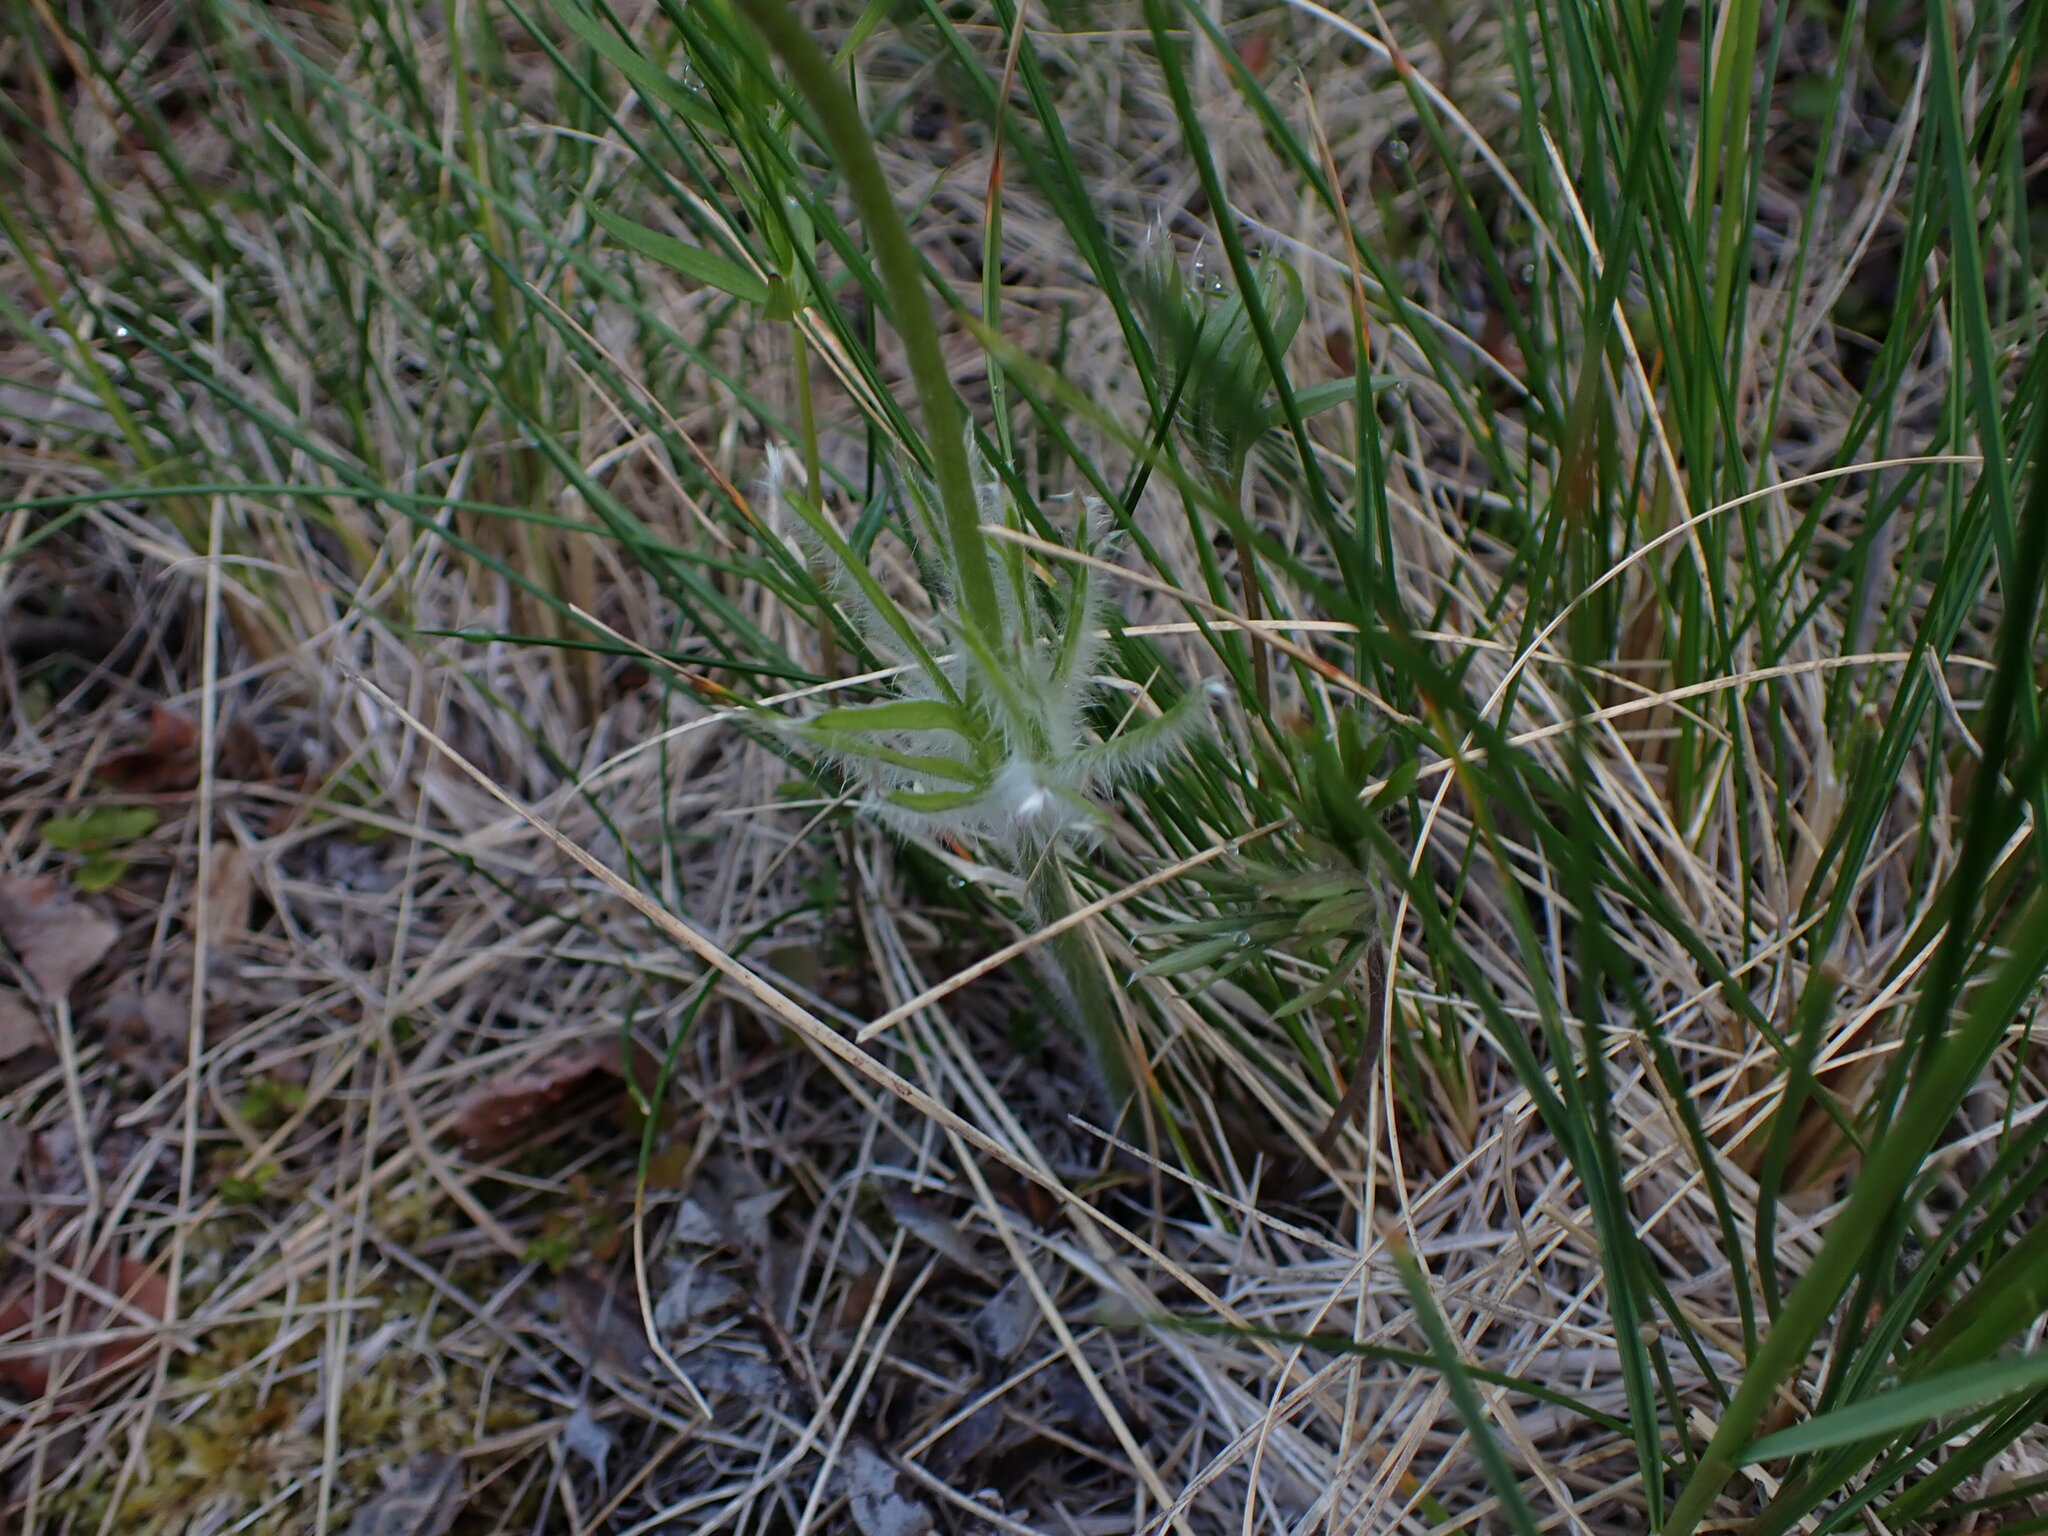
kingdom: Plantae
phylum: Tracheophyta
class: Magnoliopsida
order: Ranunculales
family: Ranunculaceae
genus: Pulsatilla
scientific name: Pulsatilla nuttalliana
